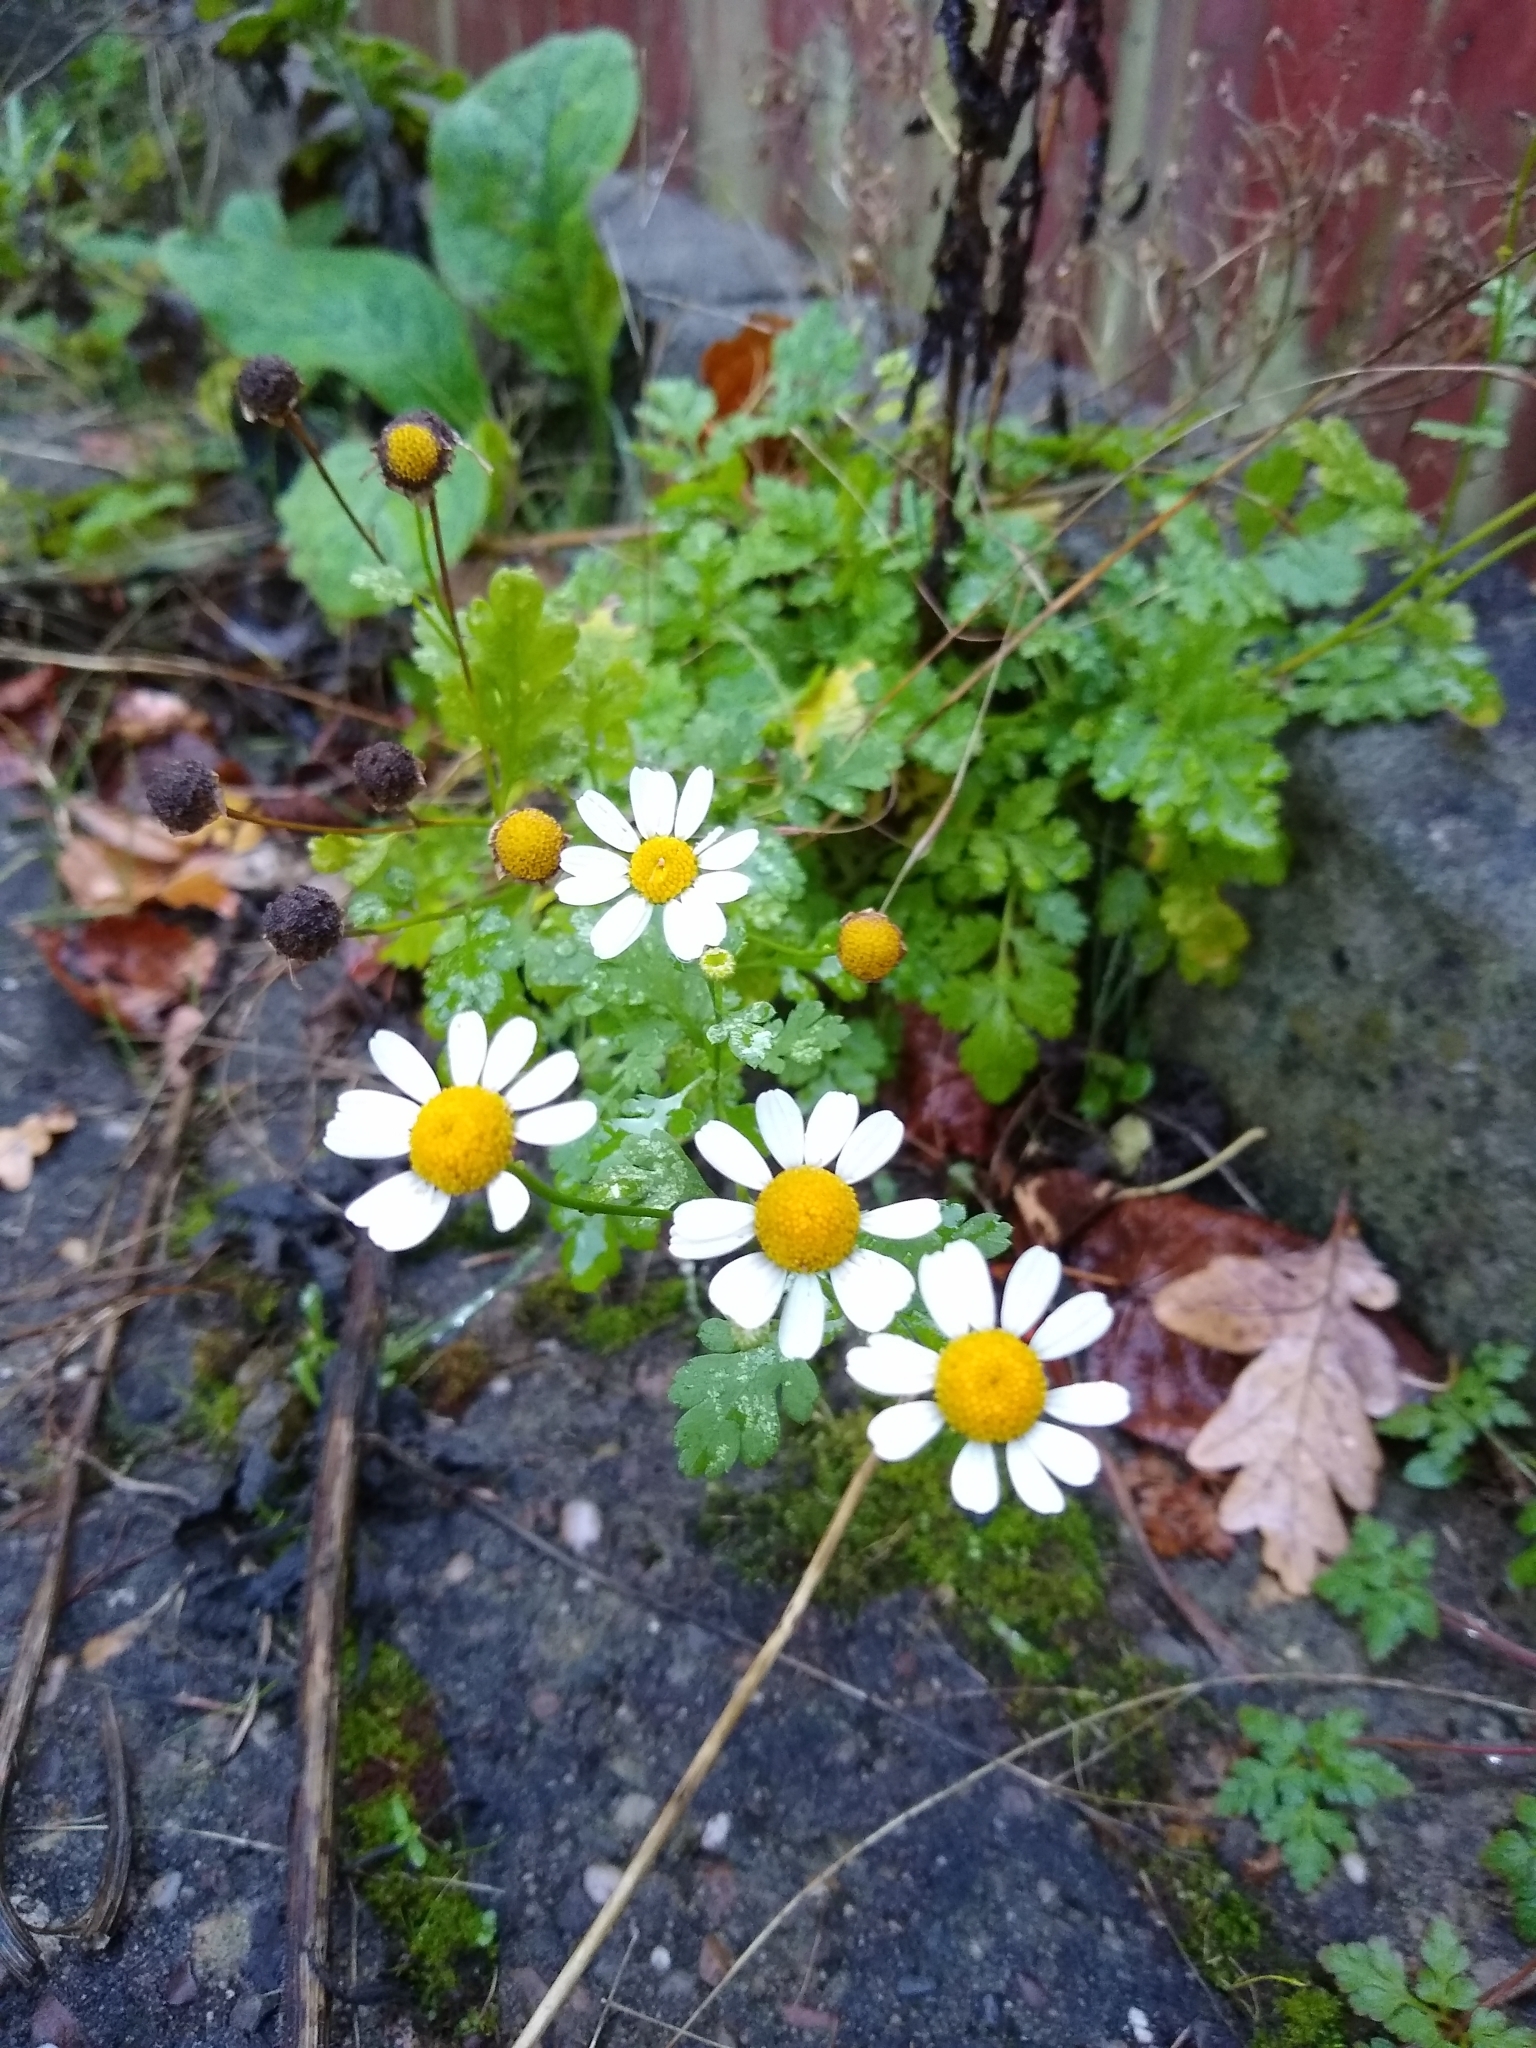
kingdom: Plantae
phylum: Tracheophyta
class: Magnoliopsida
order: Asterales
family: Asteraceae
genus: Tanacetum
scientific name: Tanacetum parthenium
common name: Feverfew
